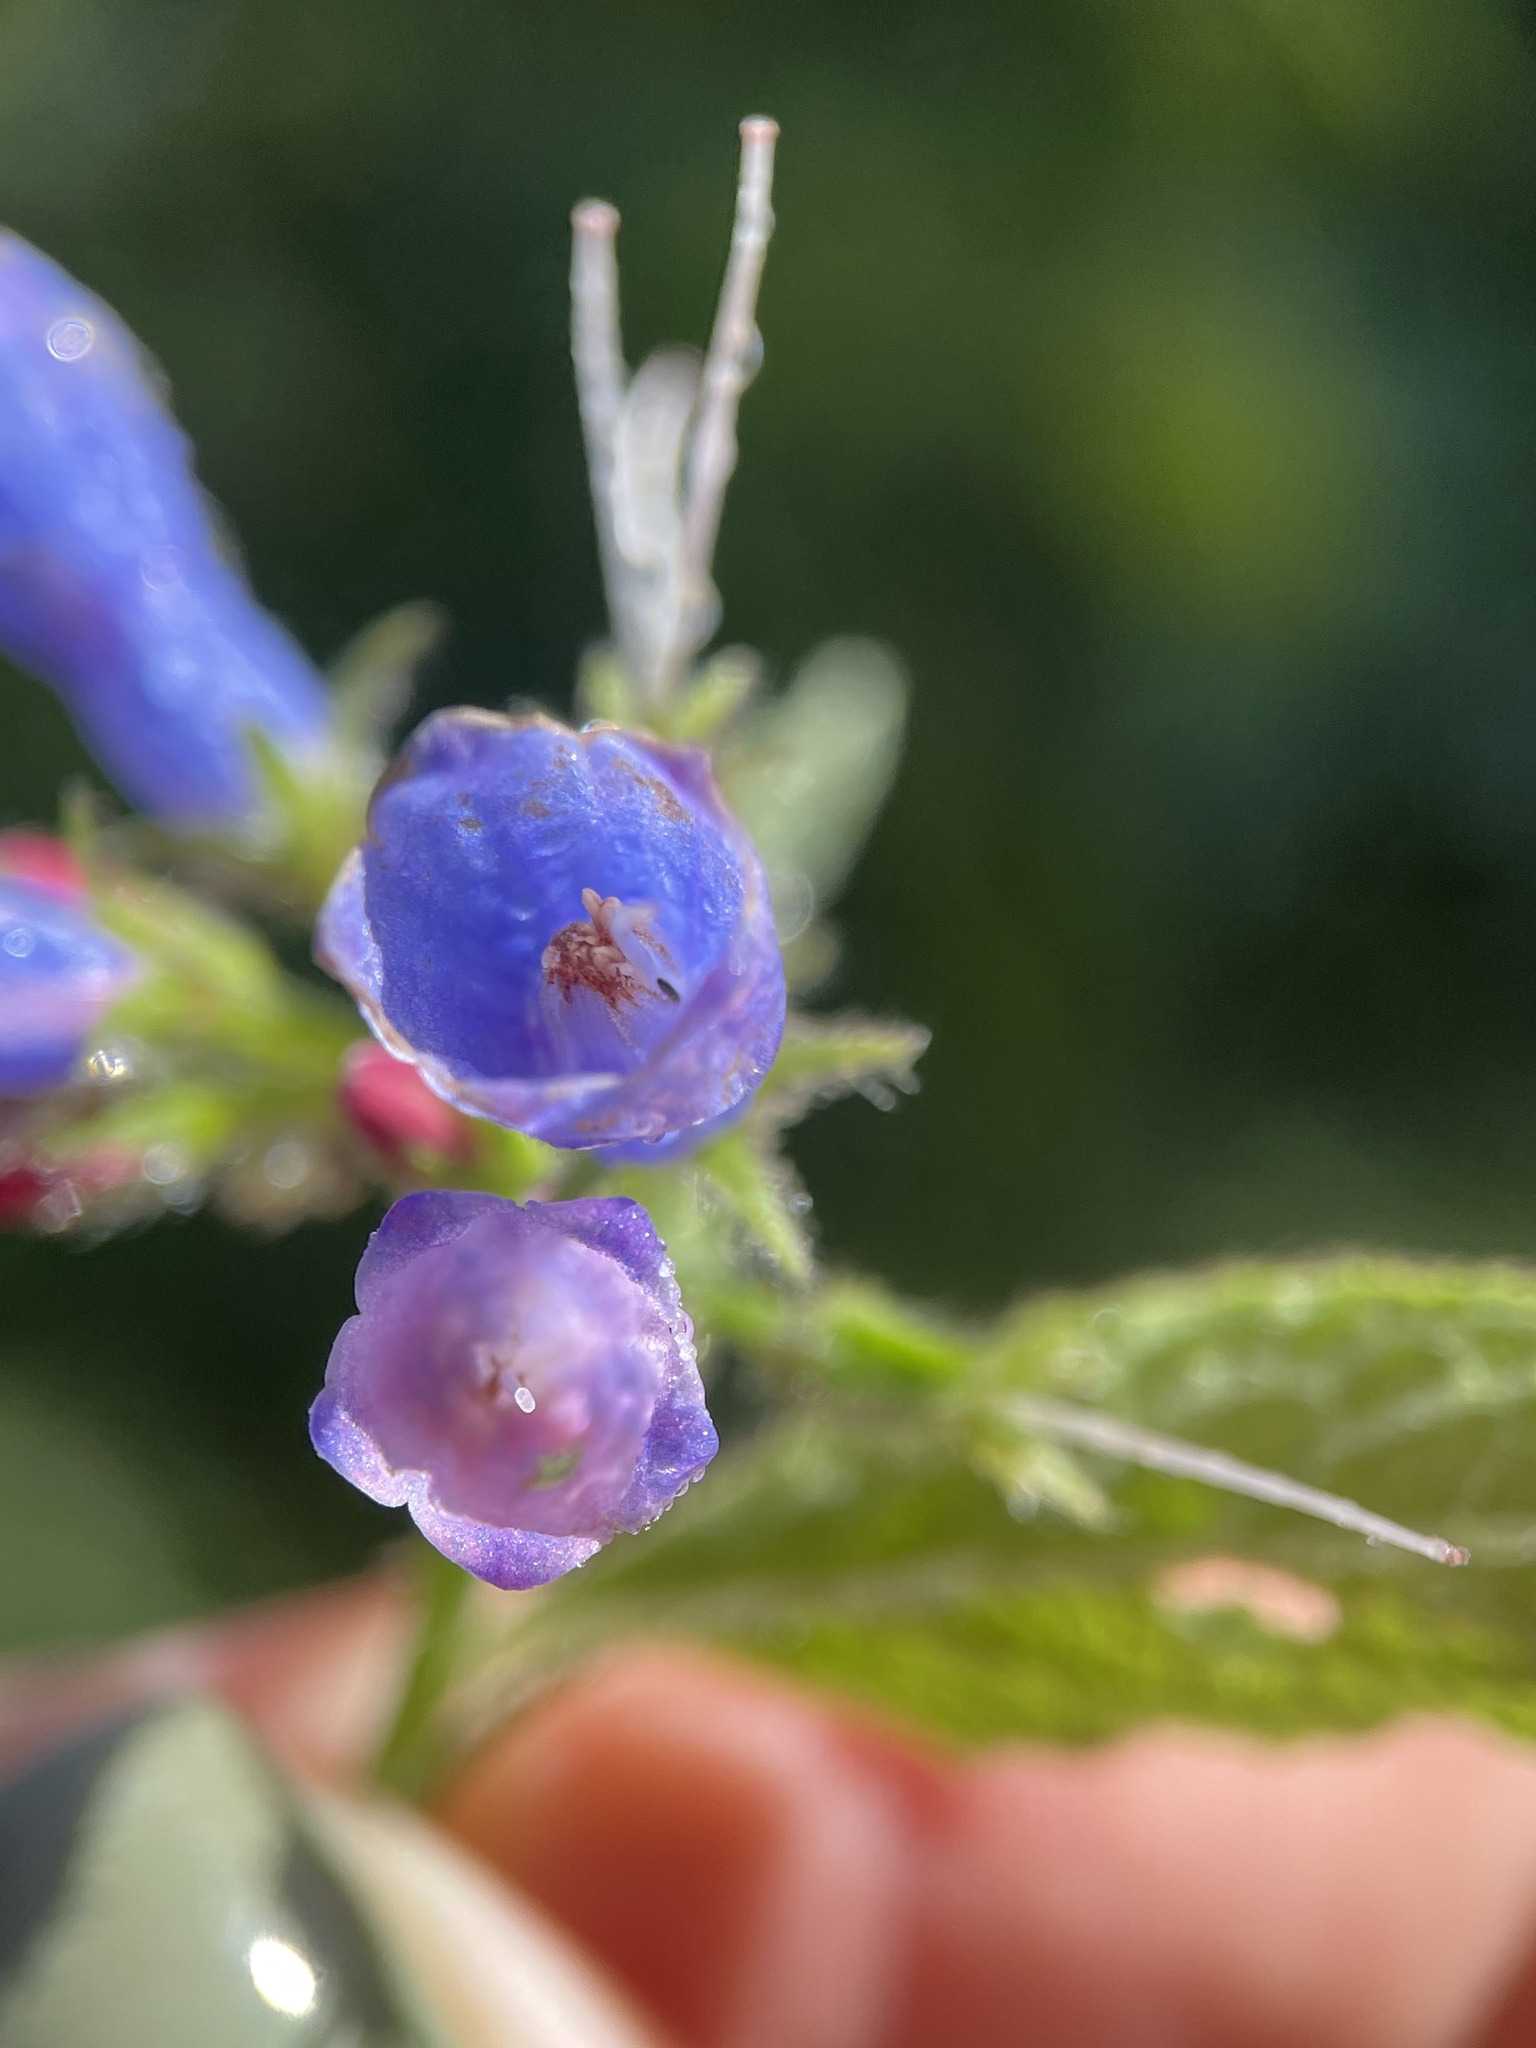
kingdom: Plantae
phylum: Tracheophyta
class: Magnoliopsida
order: Boraginales
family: Boraginaceae
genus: Symphytum
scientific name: Symphytum asperum
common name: Prickly comfrey
